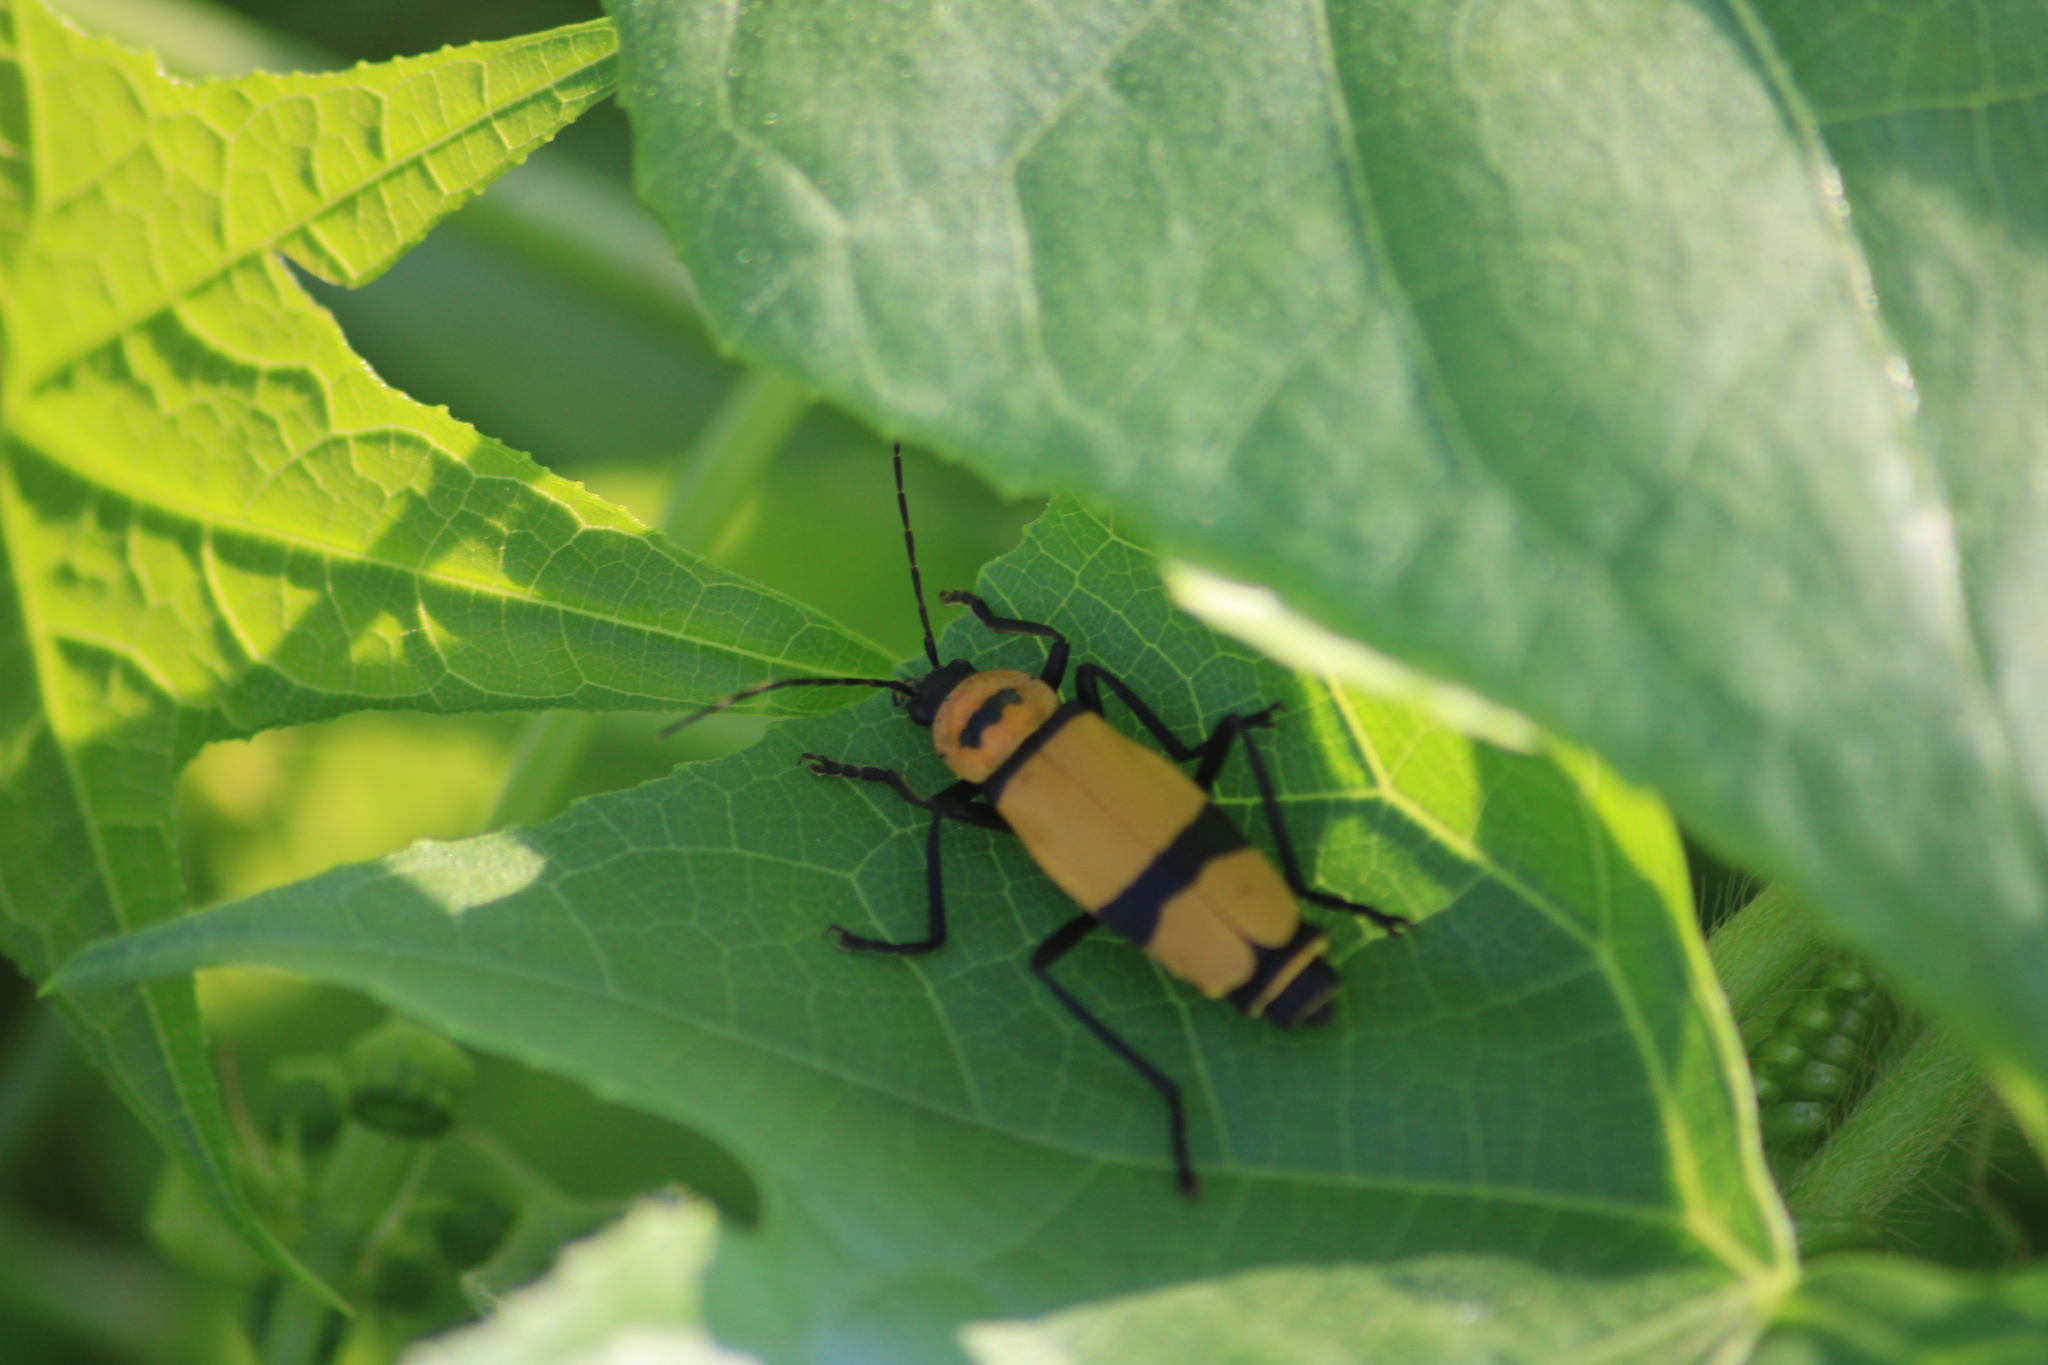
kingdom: Animalia
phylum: Arthropoda
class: Insecta
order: Coleoptera
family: Cantharidae
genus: Chauliognathus
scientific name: Chauliognathus
